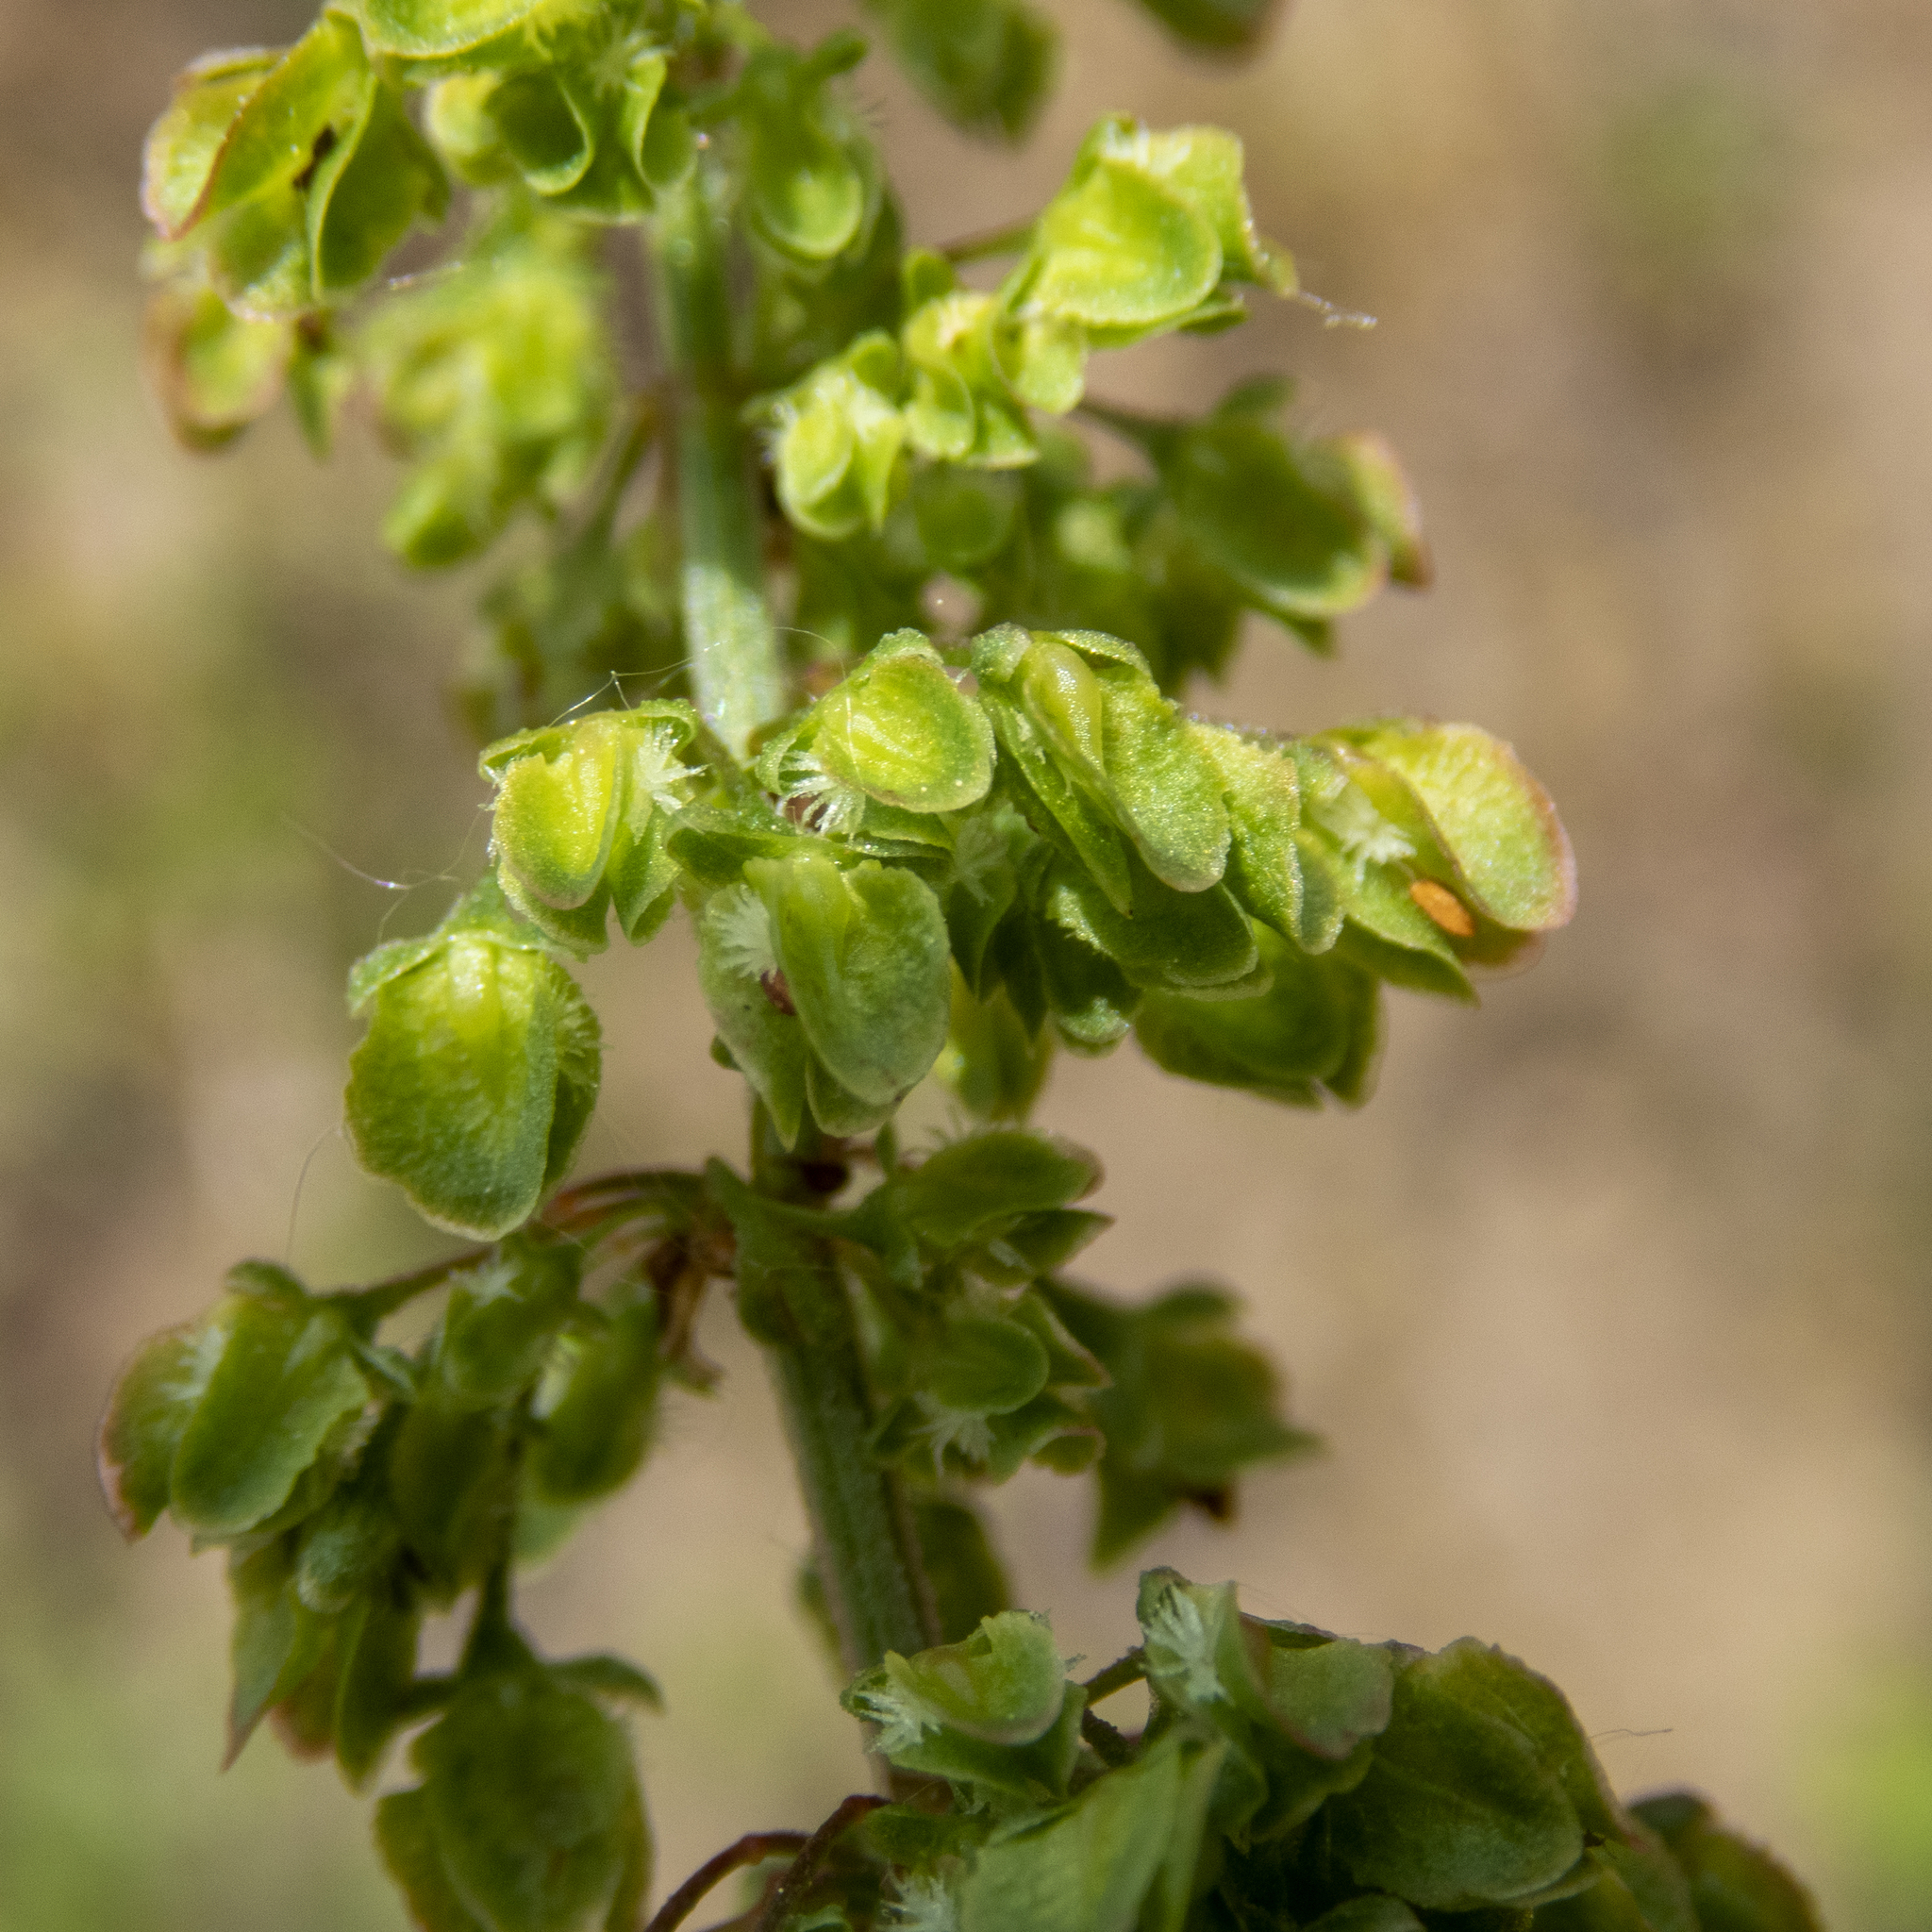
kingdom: Plantae
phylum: Tracheophyta
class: Magnoliopsida
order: Caryophyllales
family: Polygonaceae
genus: Rumex
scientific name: Rumex crispus
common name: Curled dock
